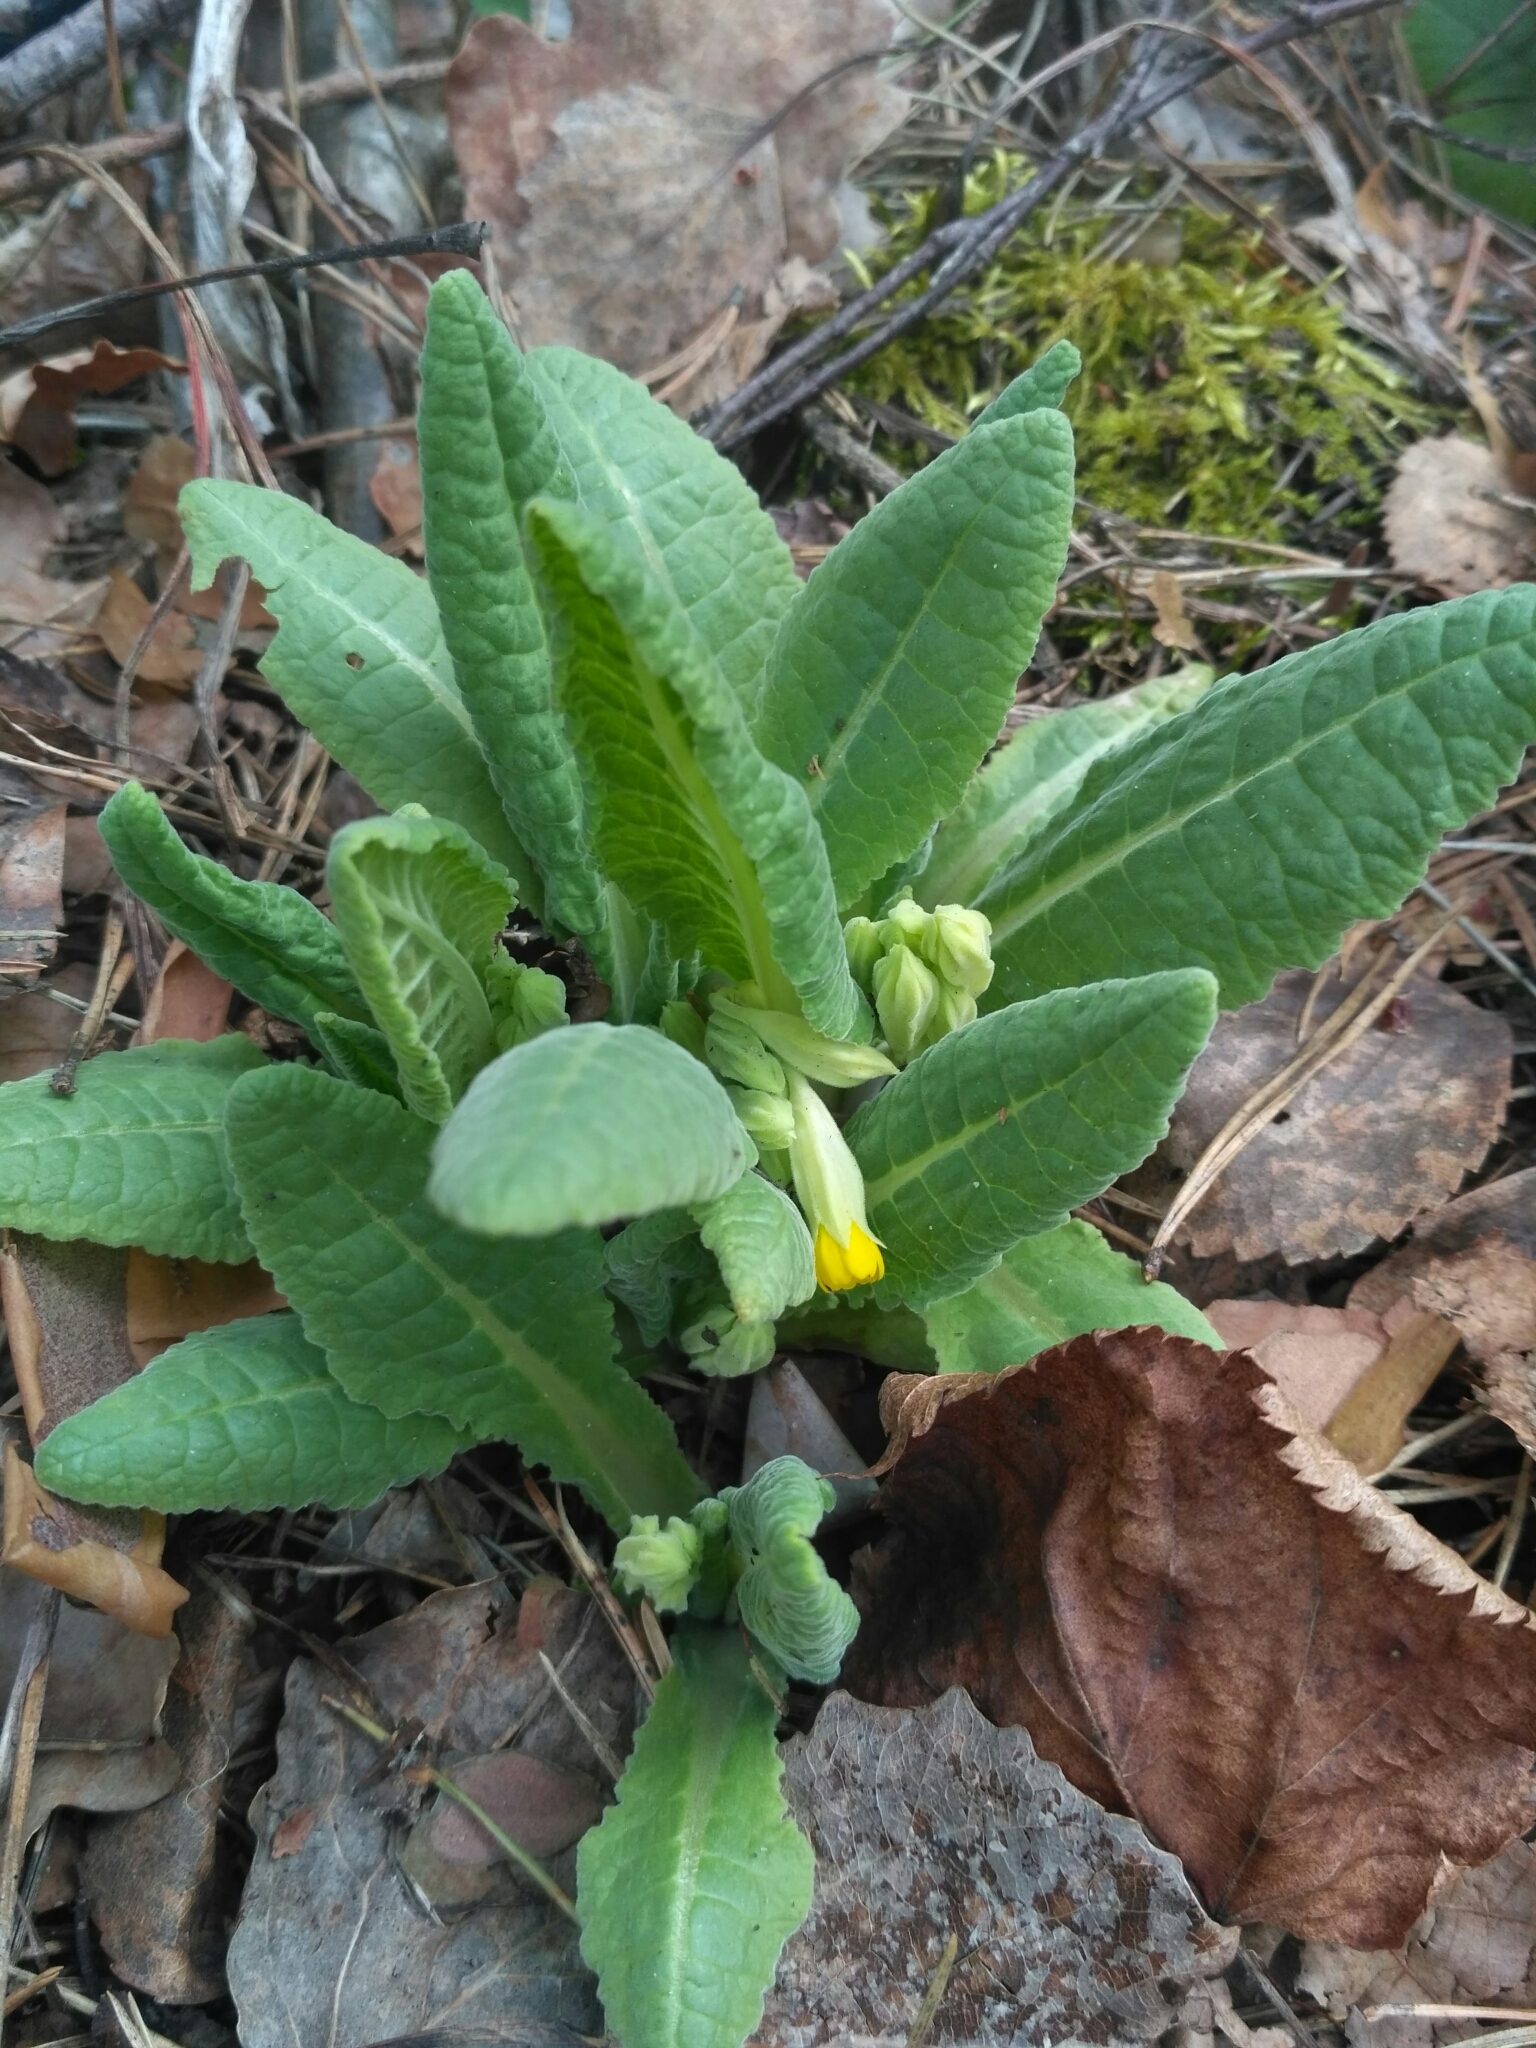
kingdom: Plantae
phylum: Tracheophyta
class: Magnoliopsida
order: Ericales
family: Primulaceae
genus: Primula
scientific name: Primula veris
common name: Cowslip
